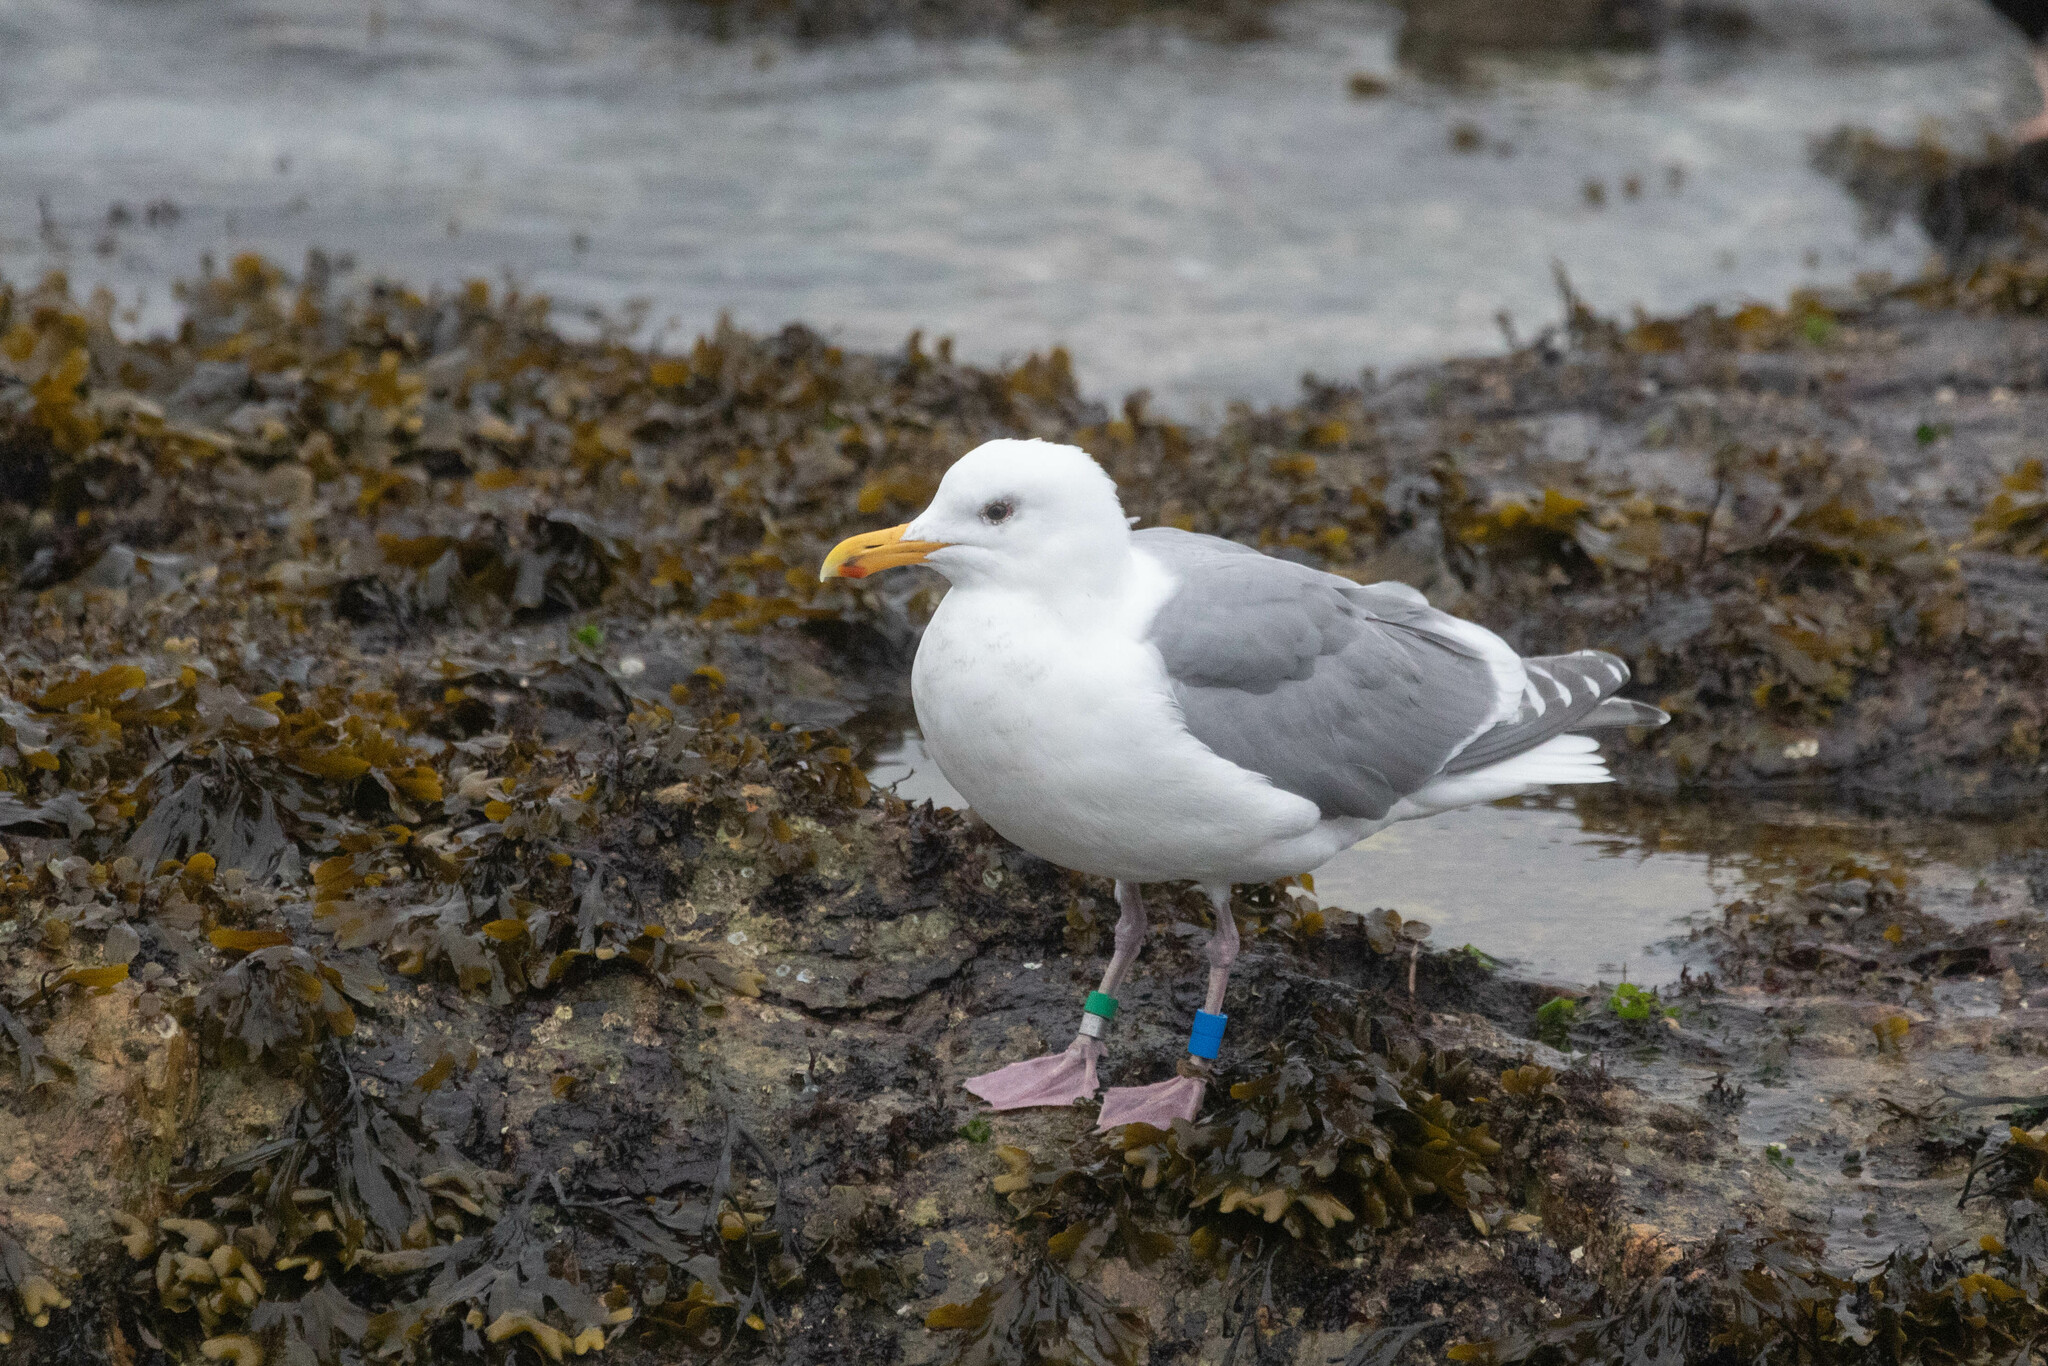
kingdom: Animalia
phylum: Chordata
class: Aves
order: Charadriiformes
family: Laridae
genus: Larus
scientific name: Larus
